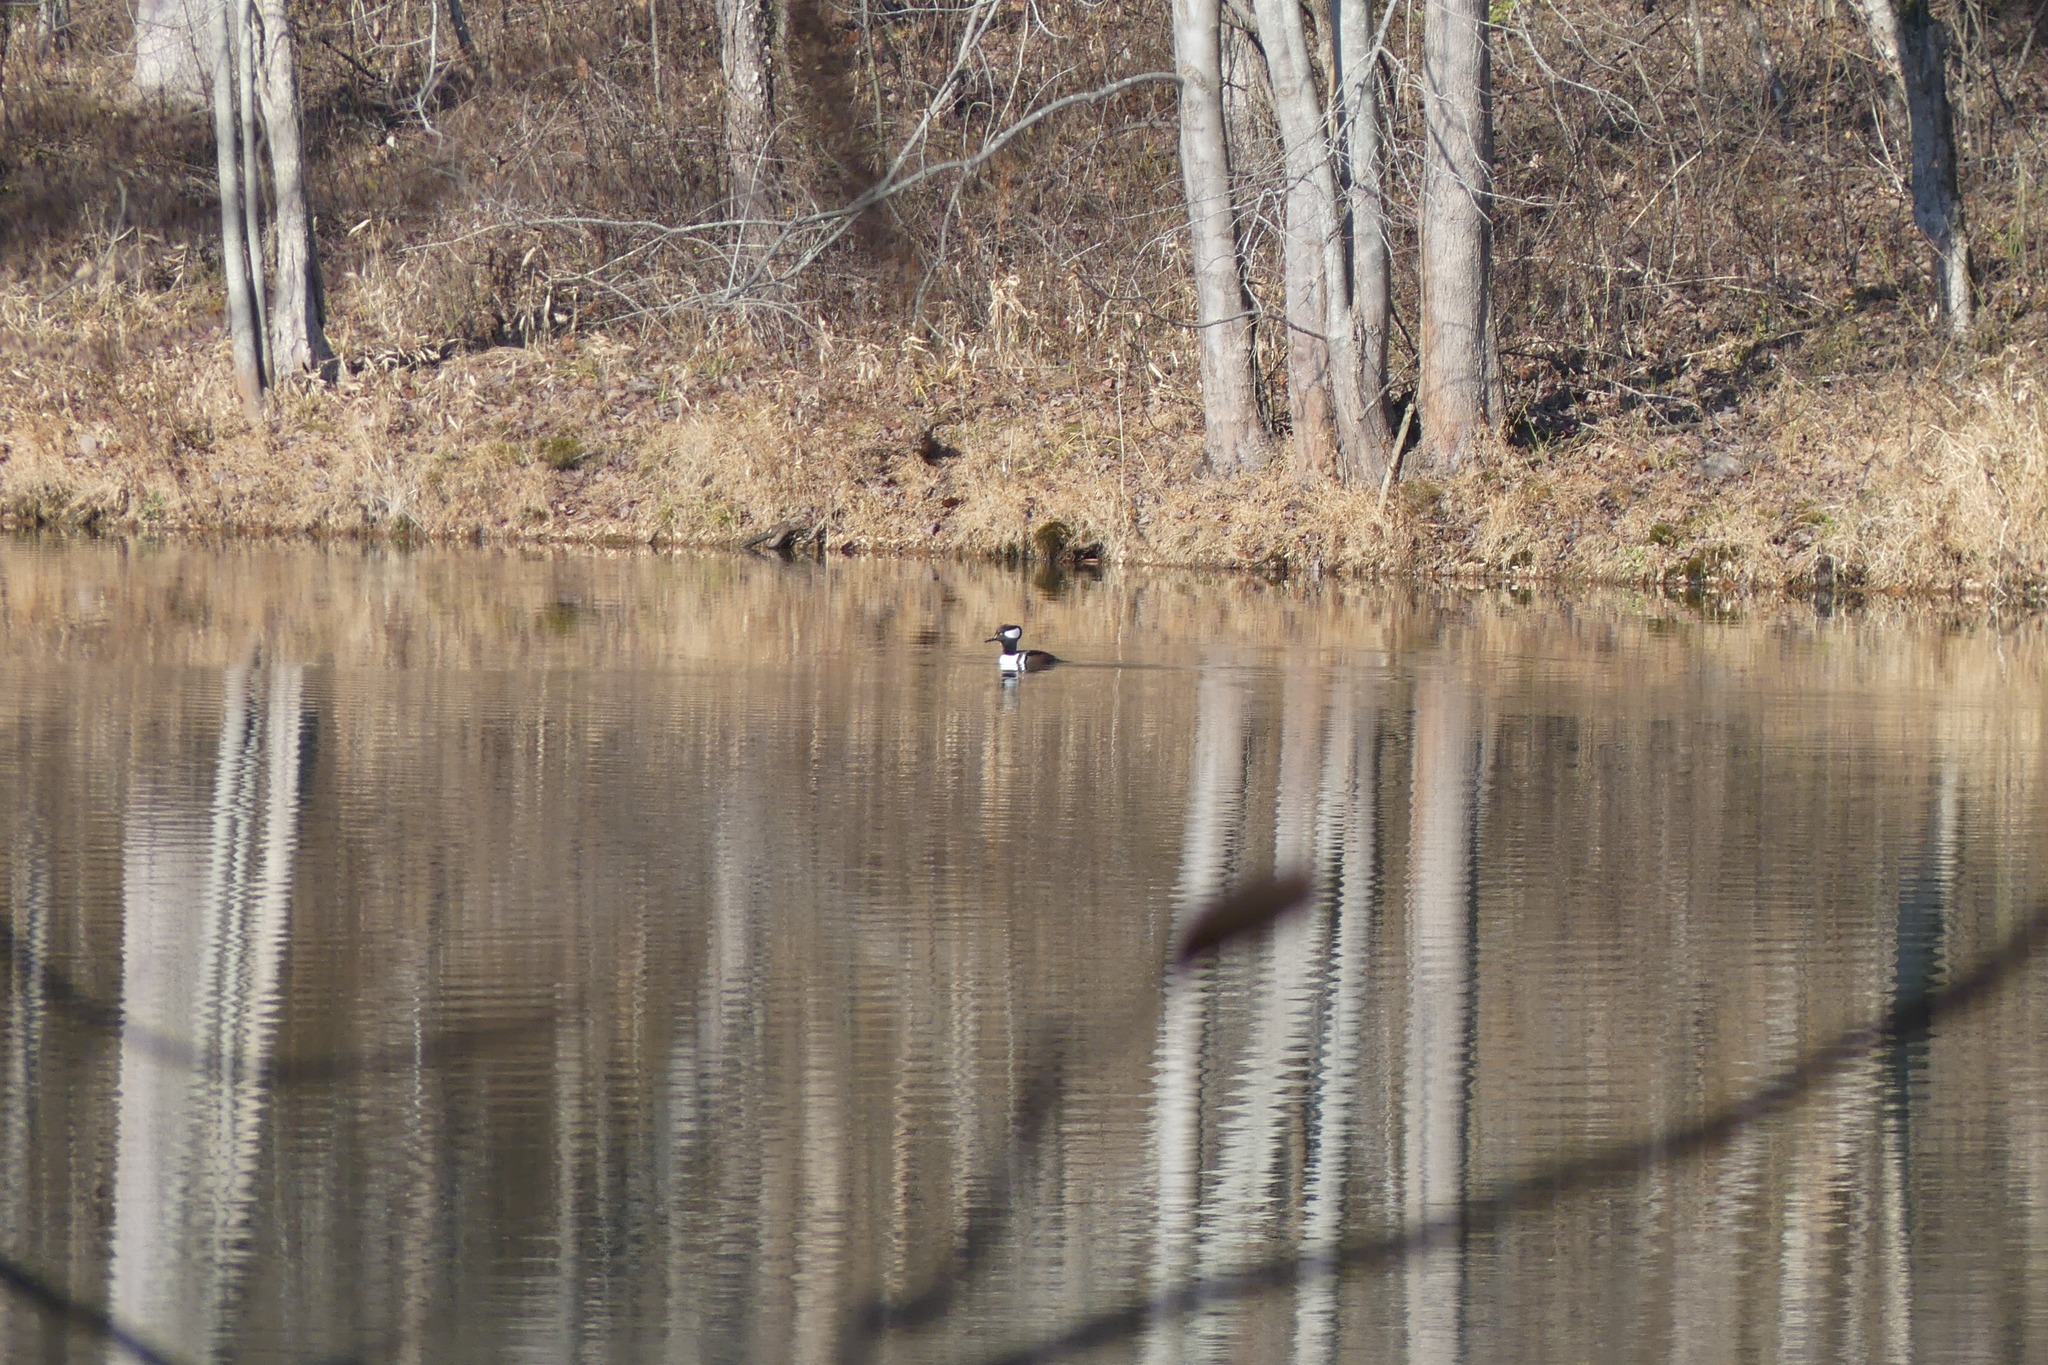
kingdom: Animalia
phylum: Chordata
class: Aves
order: Anseriformes
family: Anatidae
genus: Lophodytes
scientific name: Lophodytes cucullatus
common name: Hooded merganser
